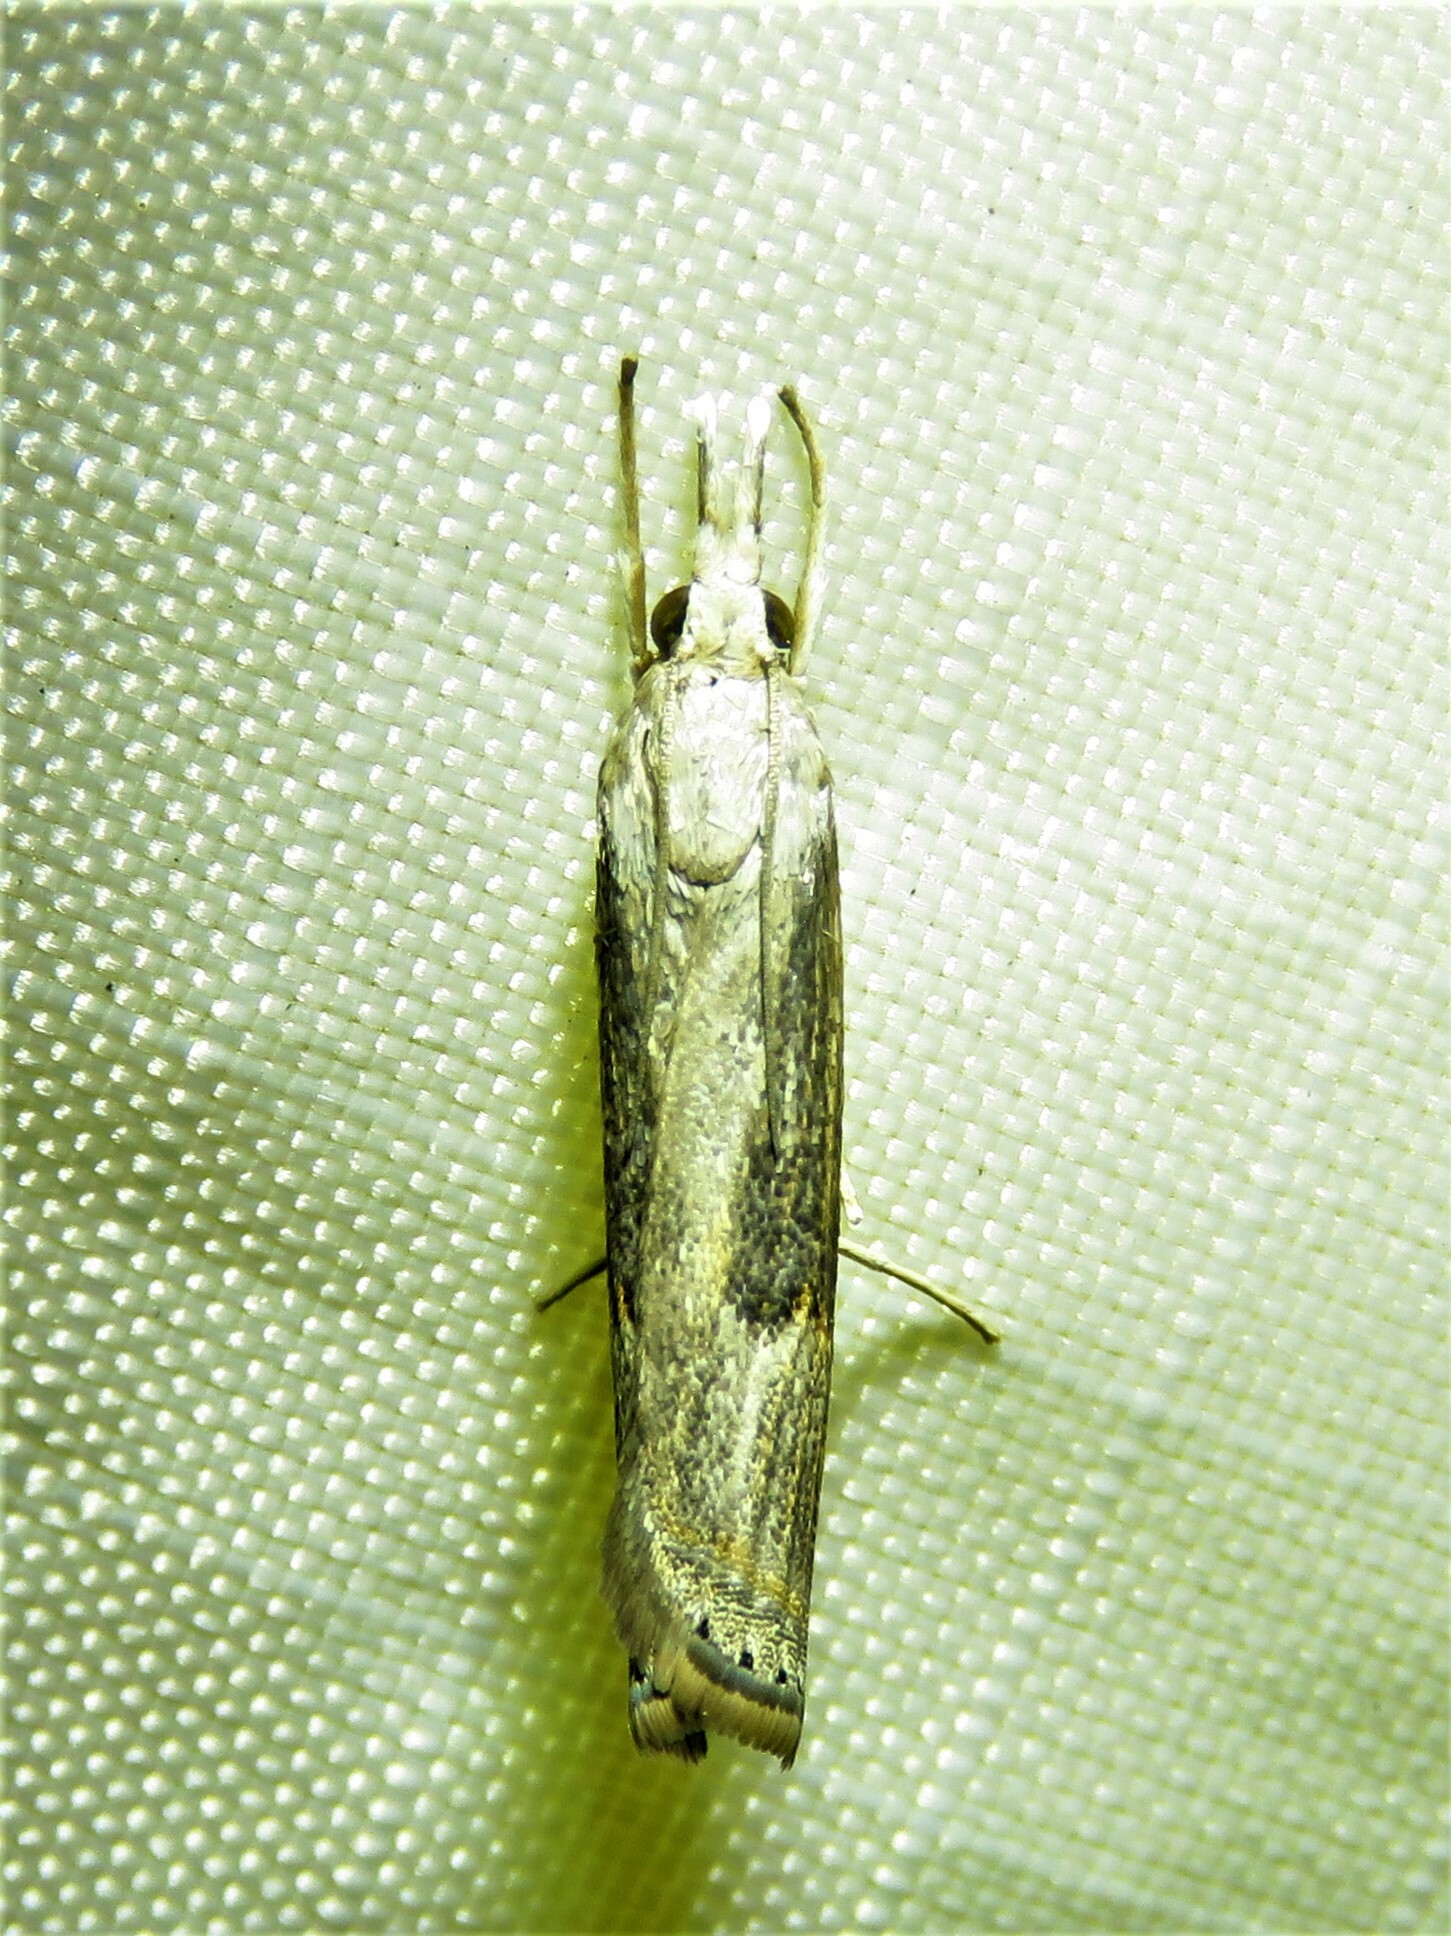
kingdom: Animalia
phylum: Arthropoda
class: Insecta
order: Lepidoptera
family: Crambidae
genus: Parapediasia
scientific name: Parapediasia teterellus
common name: Bluegrass webworm moth
